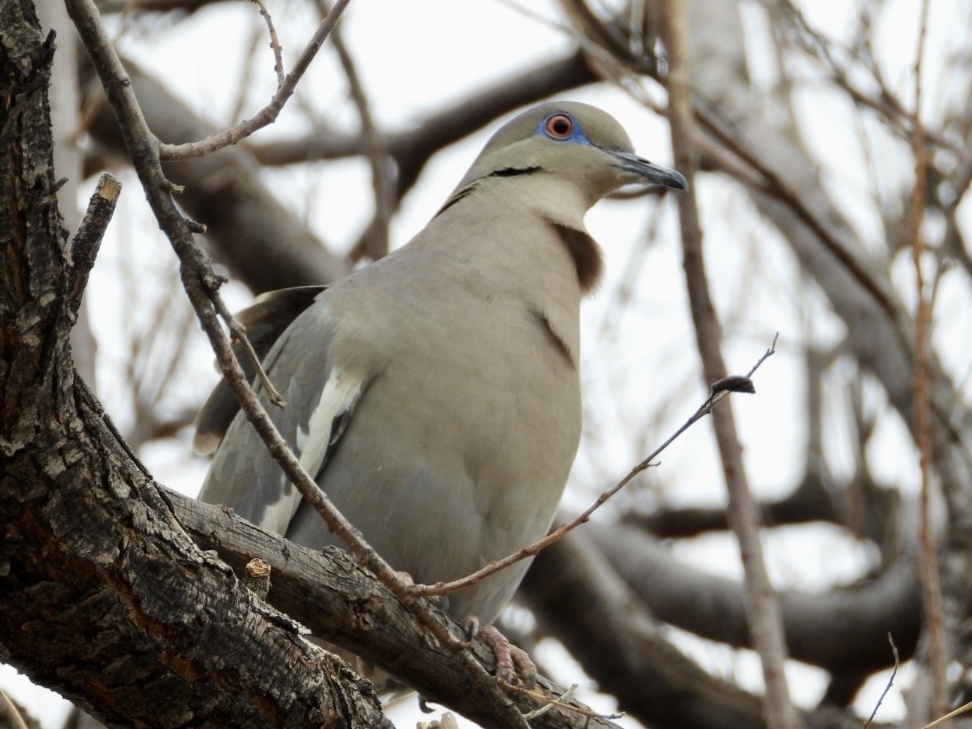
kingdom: Animalia
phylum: Chordata
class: Aves
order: Columbiformes
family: Columbidae
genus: Zenaida
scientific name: Zenaida asiatica
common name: White-winged dove
